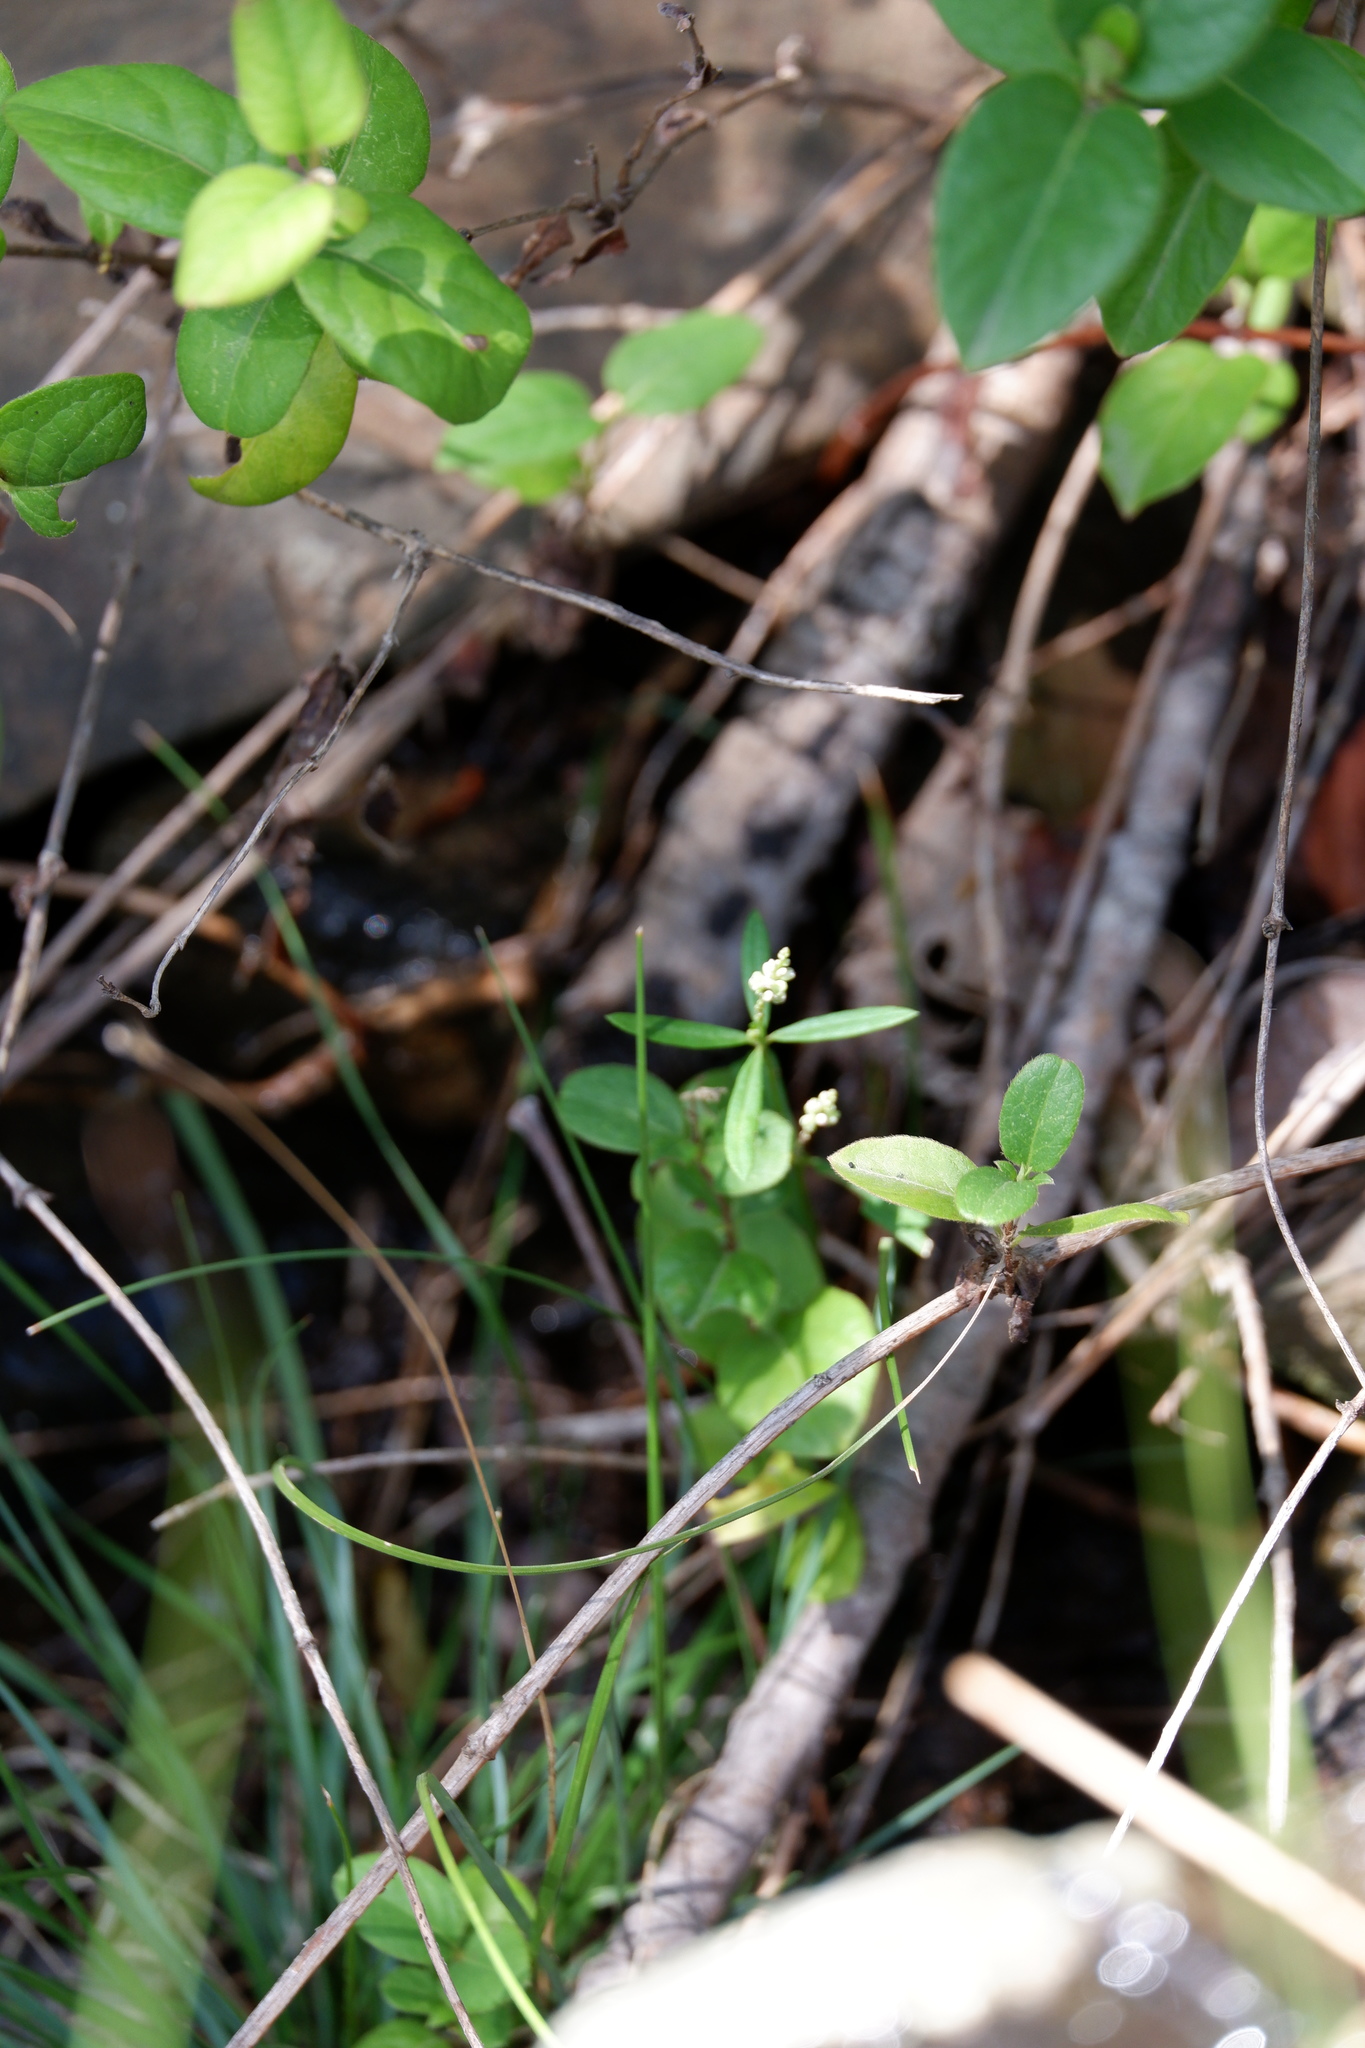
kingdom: Plantae
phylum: Tracheophyta
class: Magnoliopsida
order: Fabales
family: Polygalaceae
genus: Polygala
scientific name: Polygala verticillata
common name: Whorl milkwort
